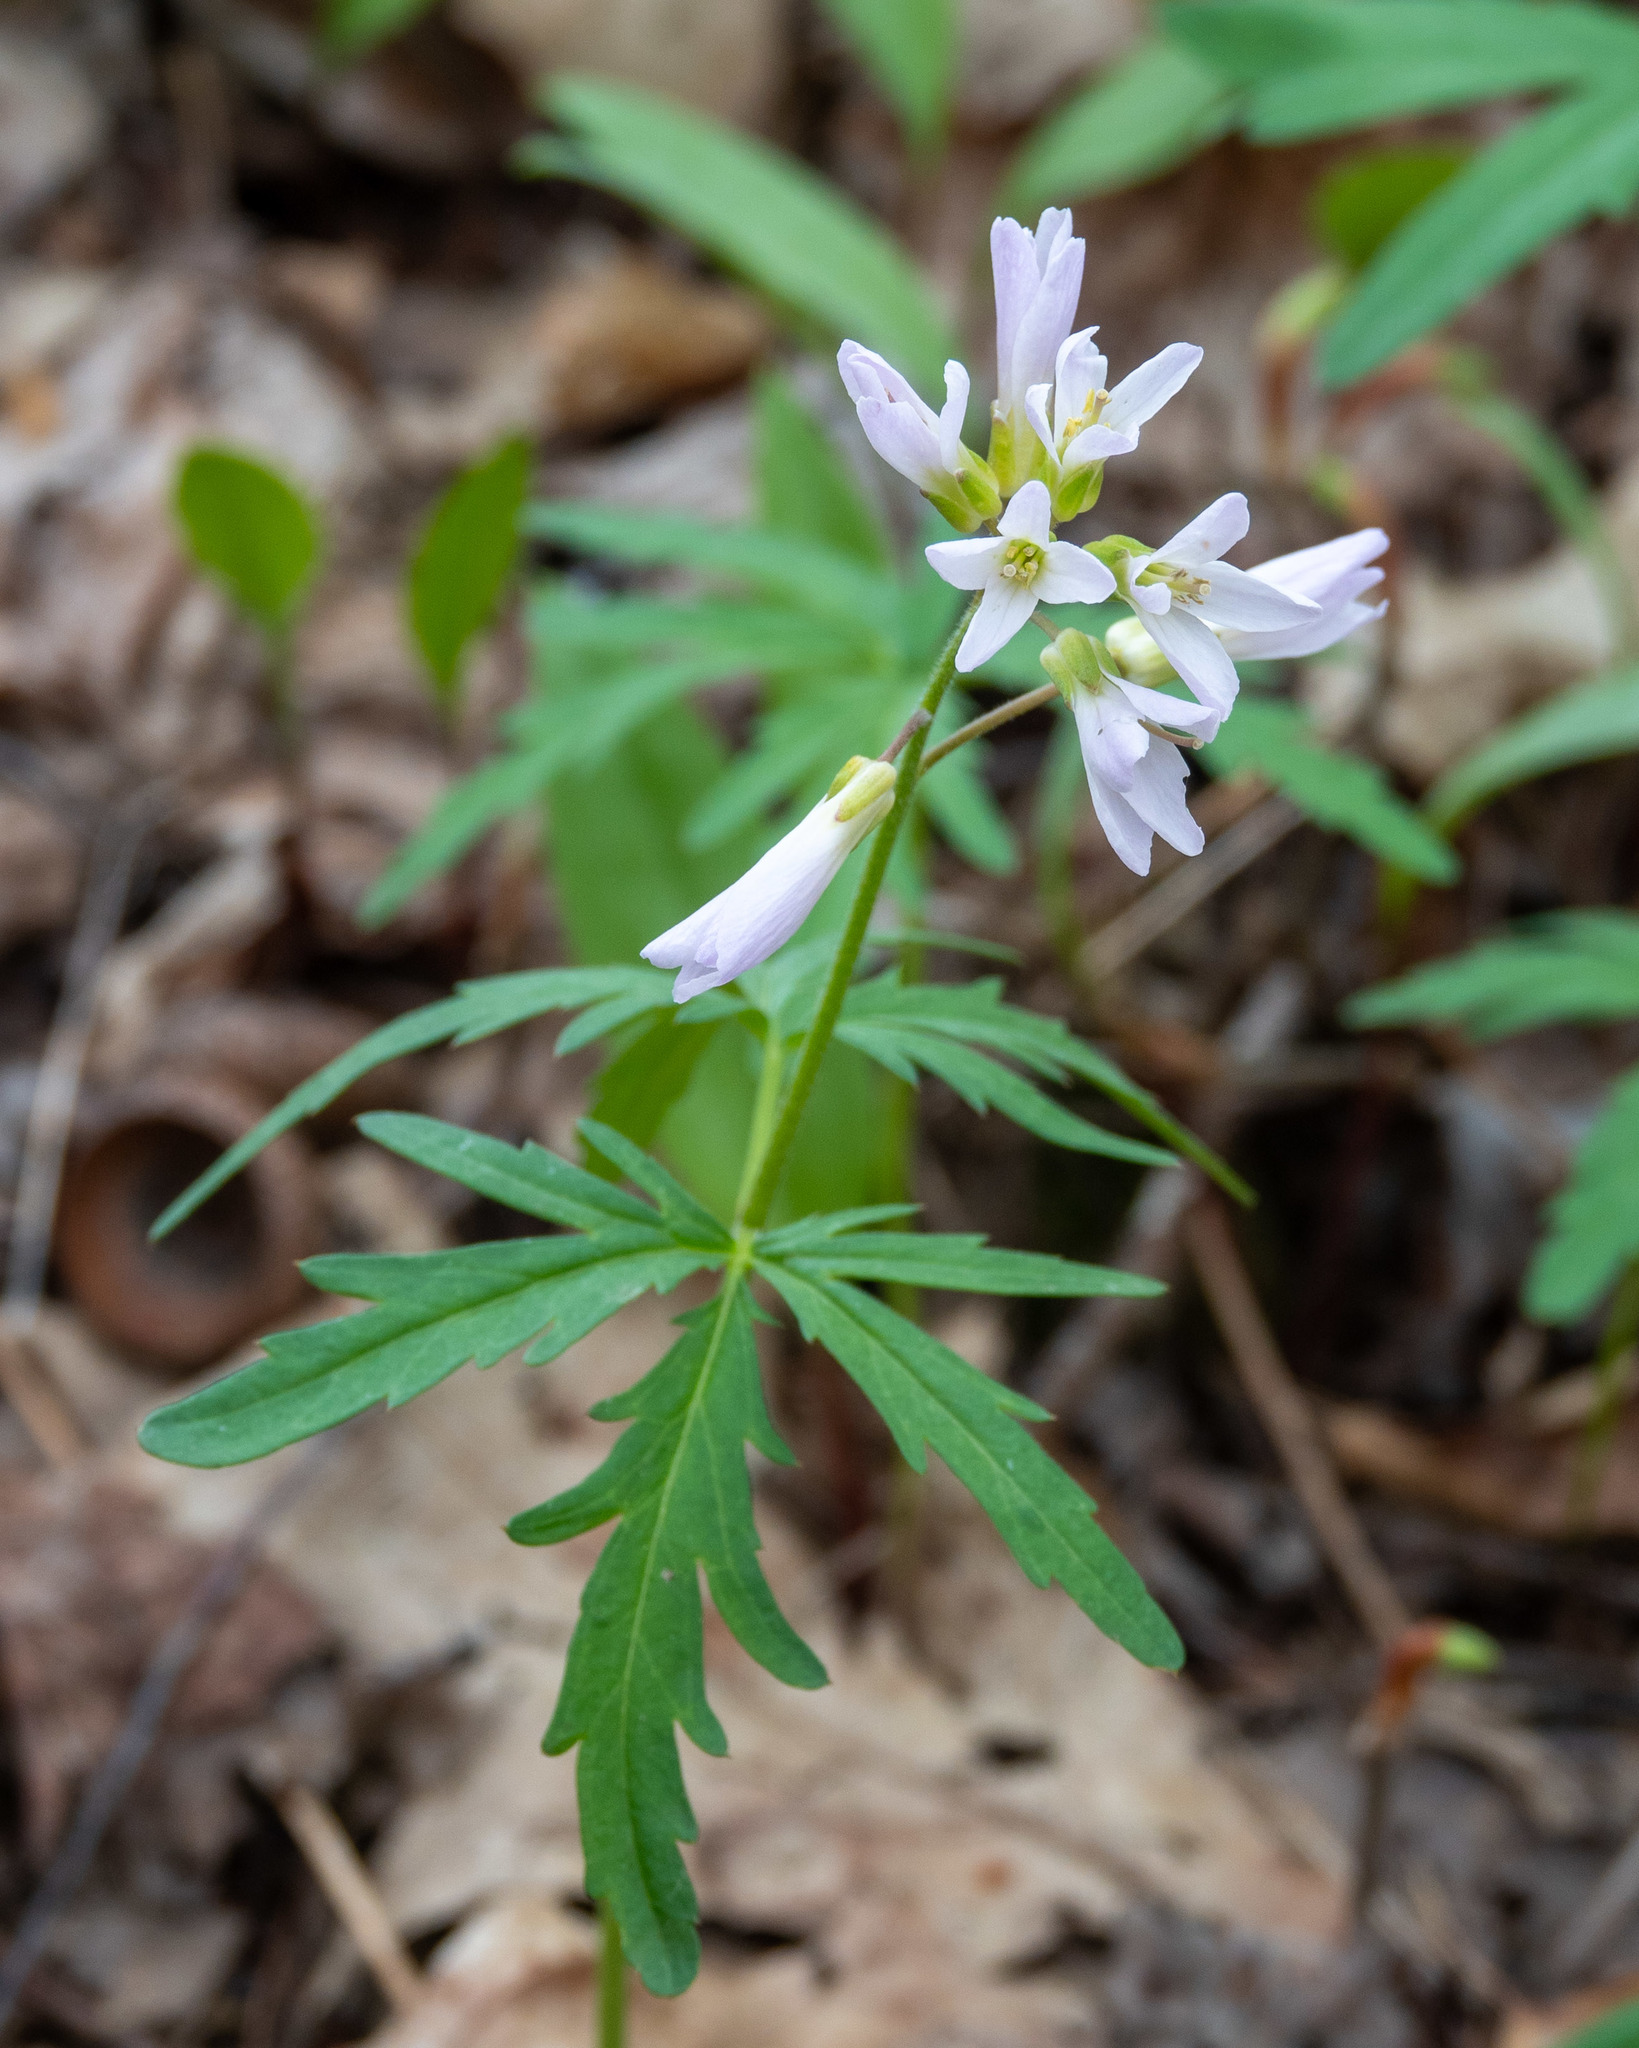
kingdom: Plantae
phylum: Tracheophyta
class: Magnoliopsida
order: Brassicales
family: Brassicaceae
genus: Cardamine
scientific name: Cardamine concatenata
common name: Cut-leaf toothcup
